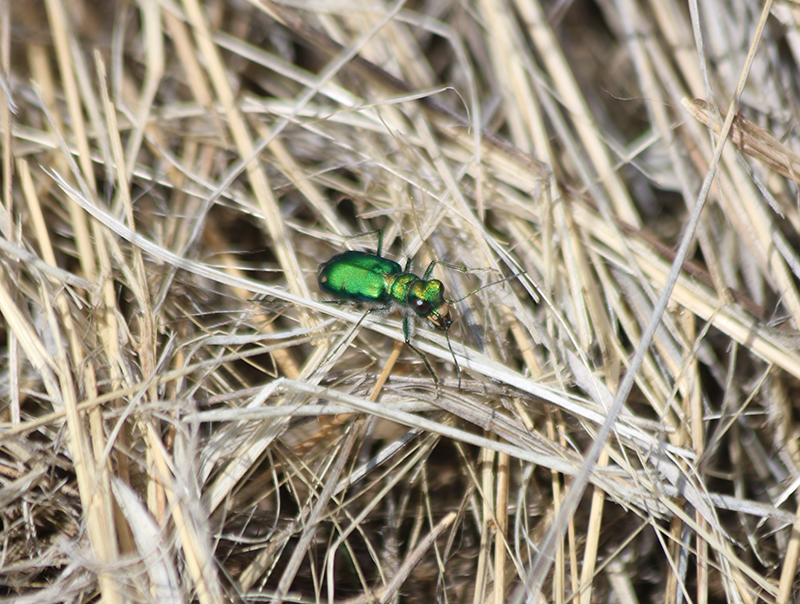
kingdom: Animalia
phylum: Arthropoda
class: Insecta
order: Coleoptera
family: Carabidae
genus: Cicindela
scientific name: Cicindela decemnotata
